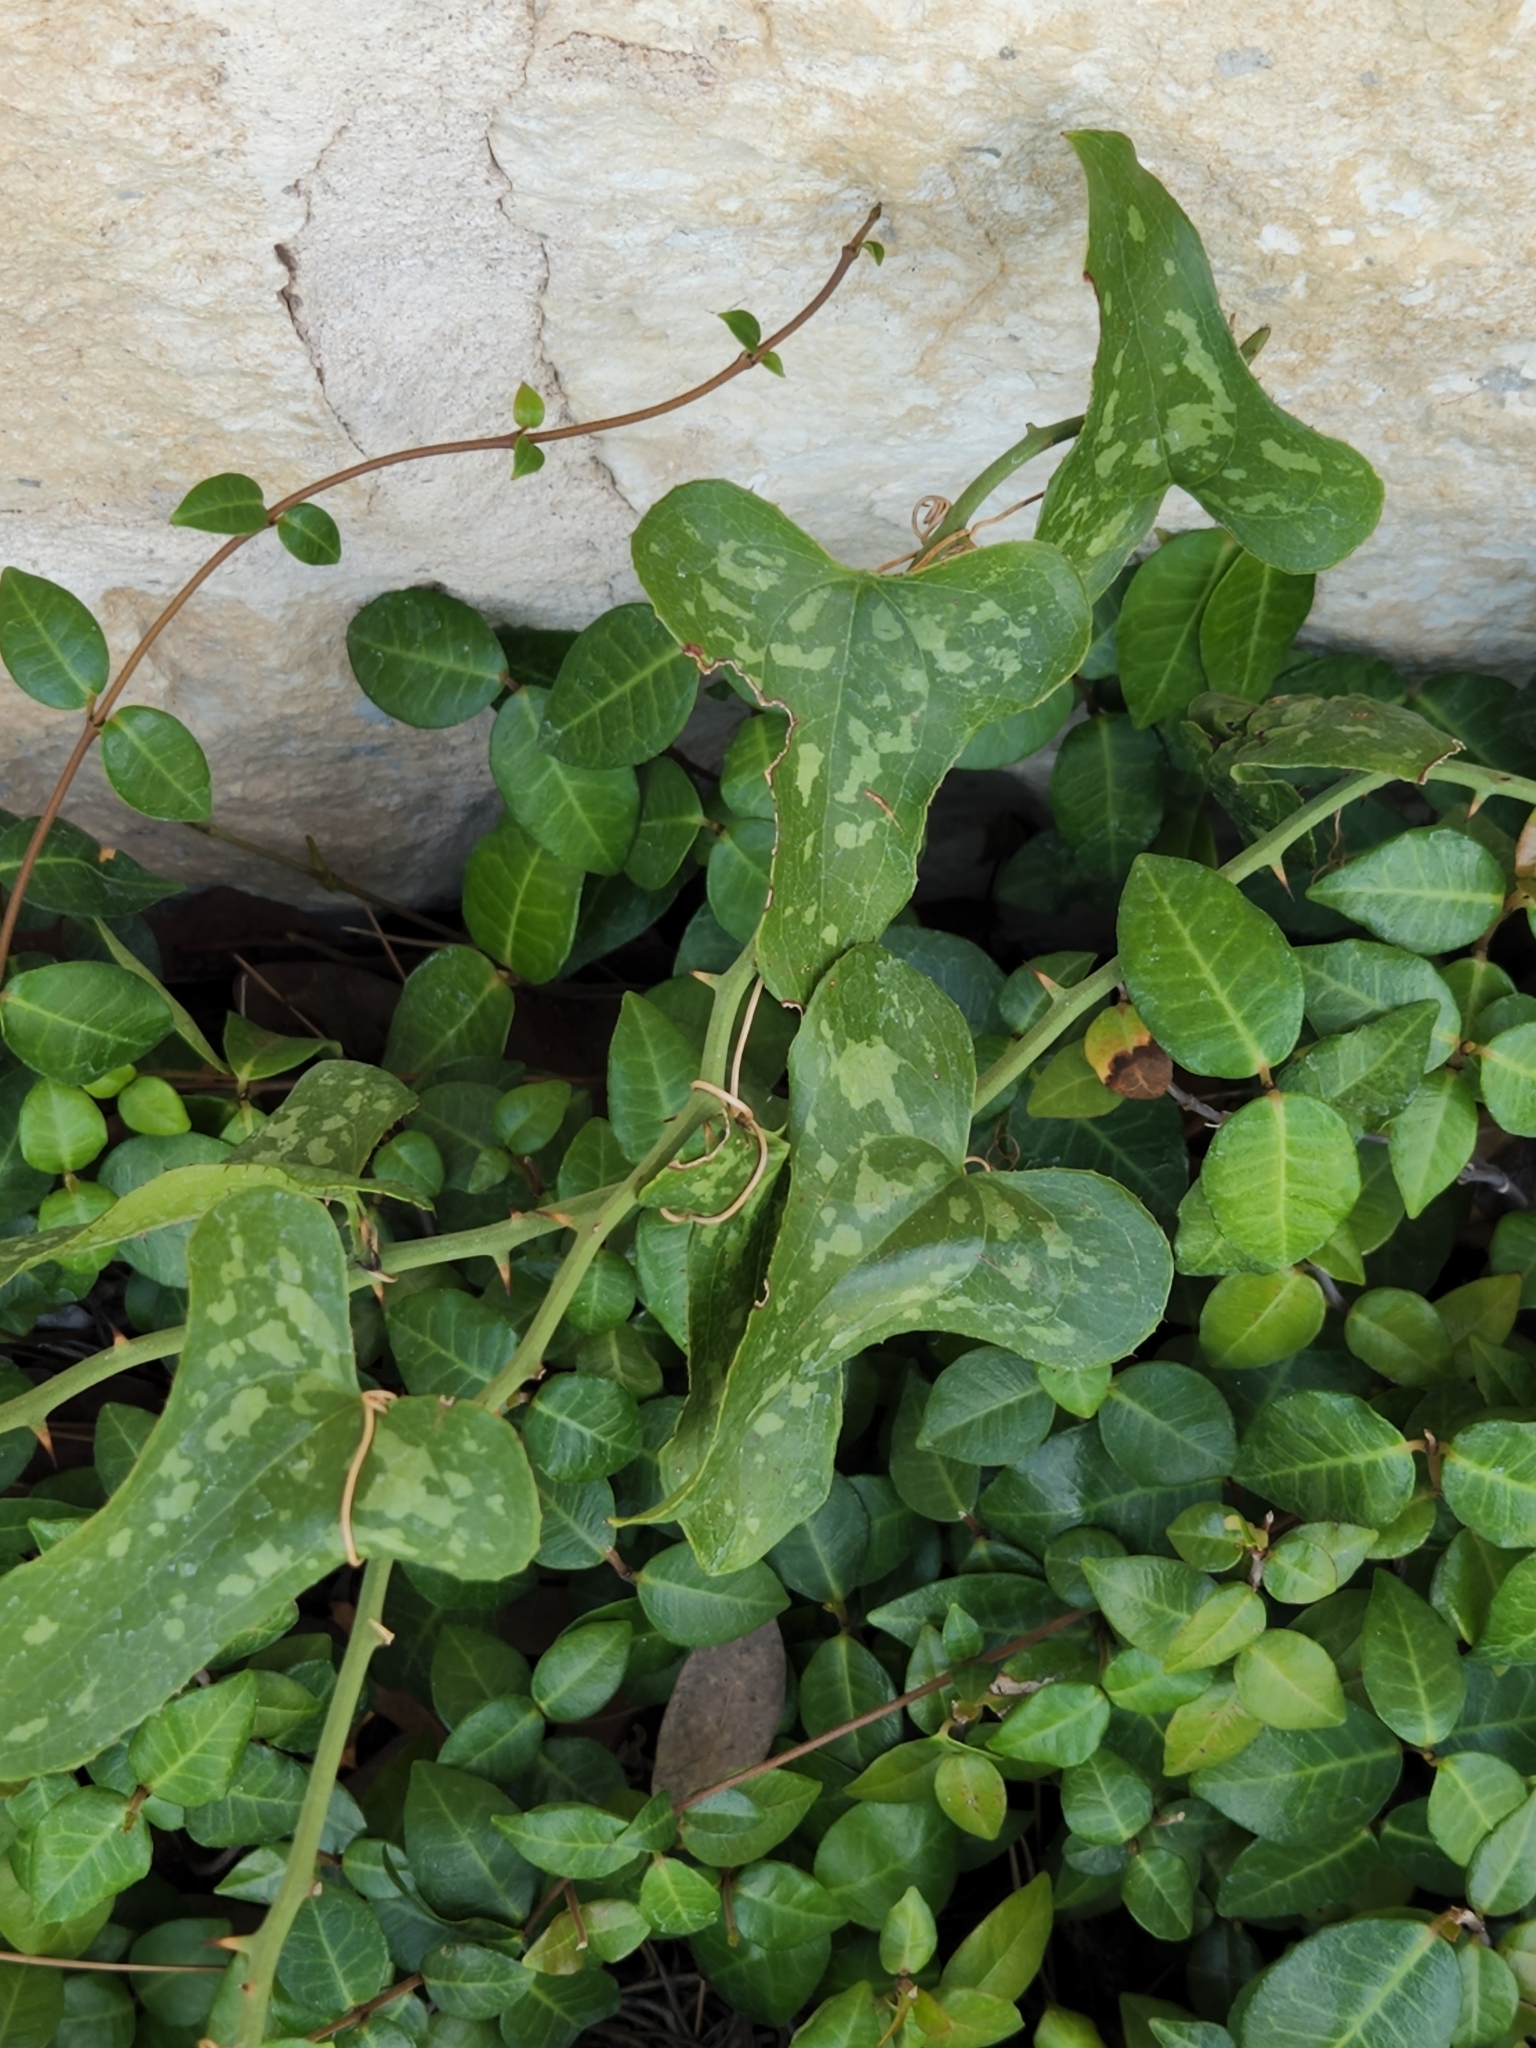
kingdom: Plantae
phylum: Tracheophyta
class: Liliopsida
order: Liliales
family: Smilacaceae
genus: Smilax
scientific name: Smilax bona-nox
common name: Catbrier
